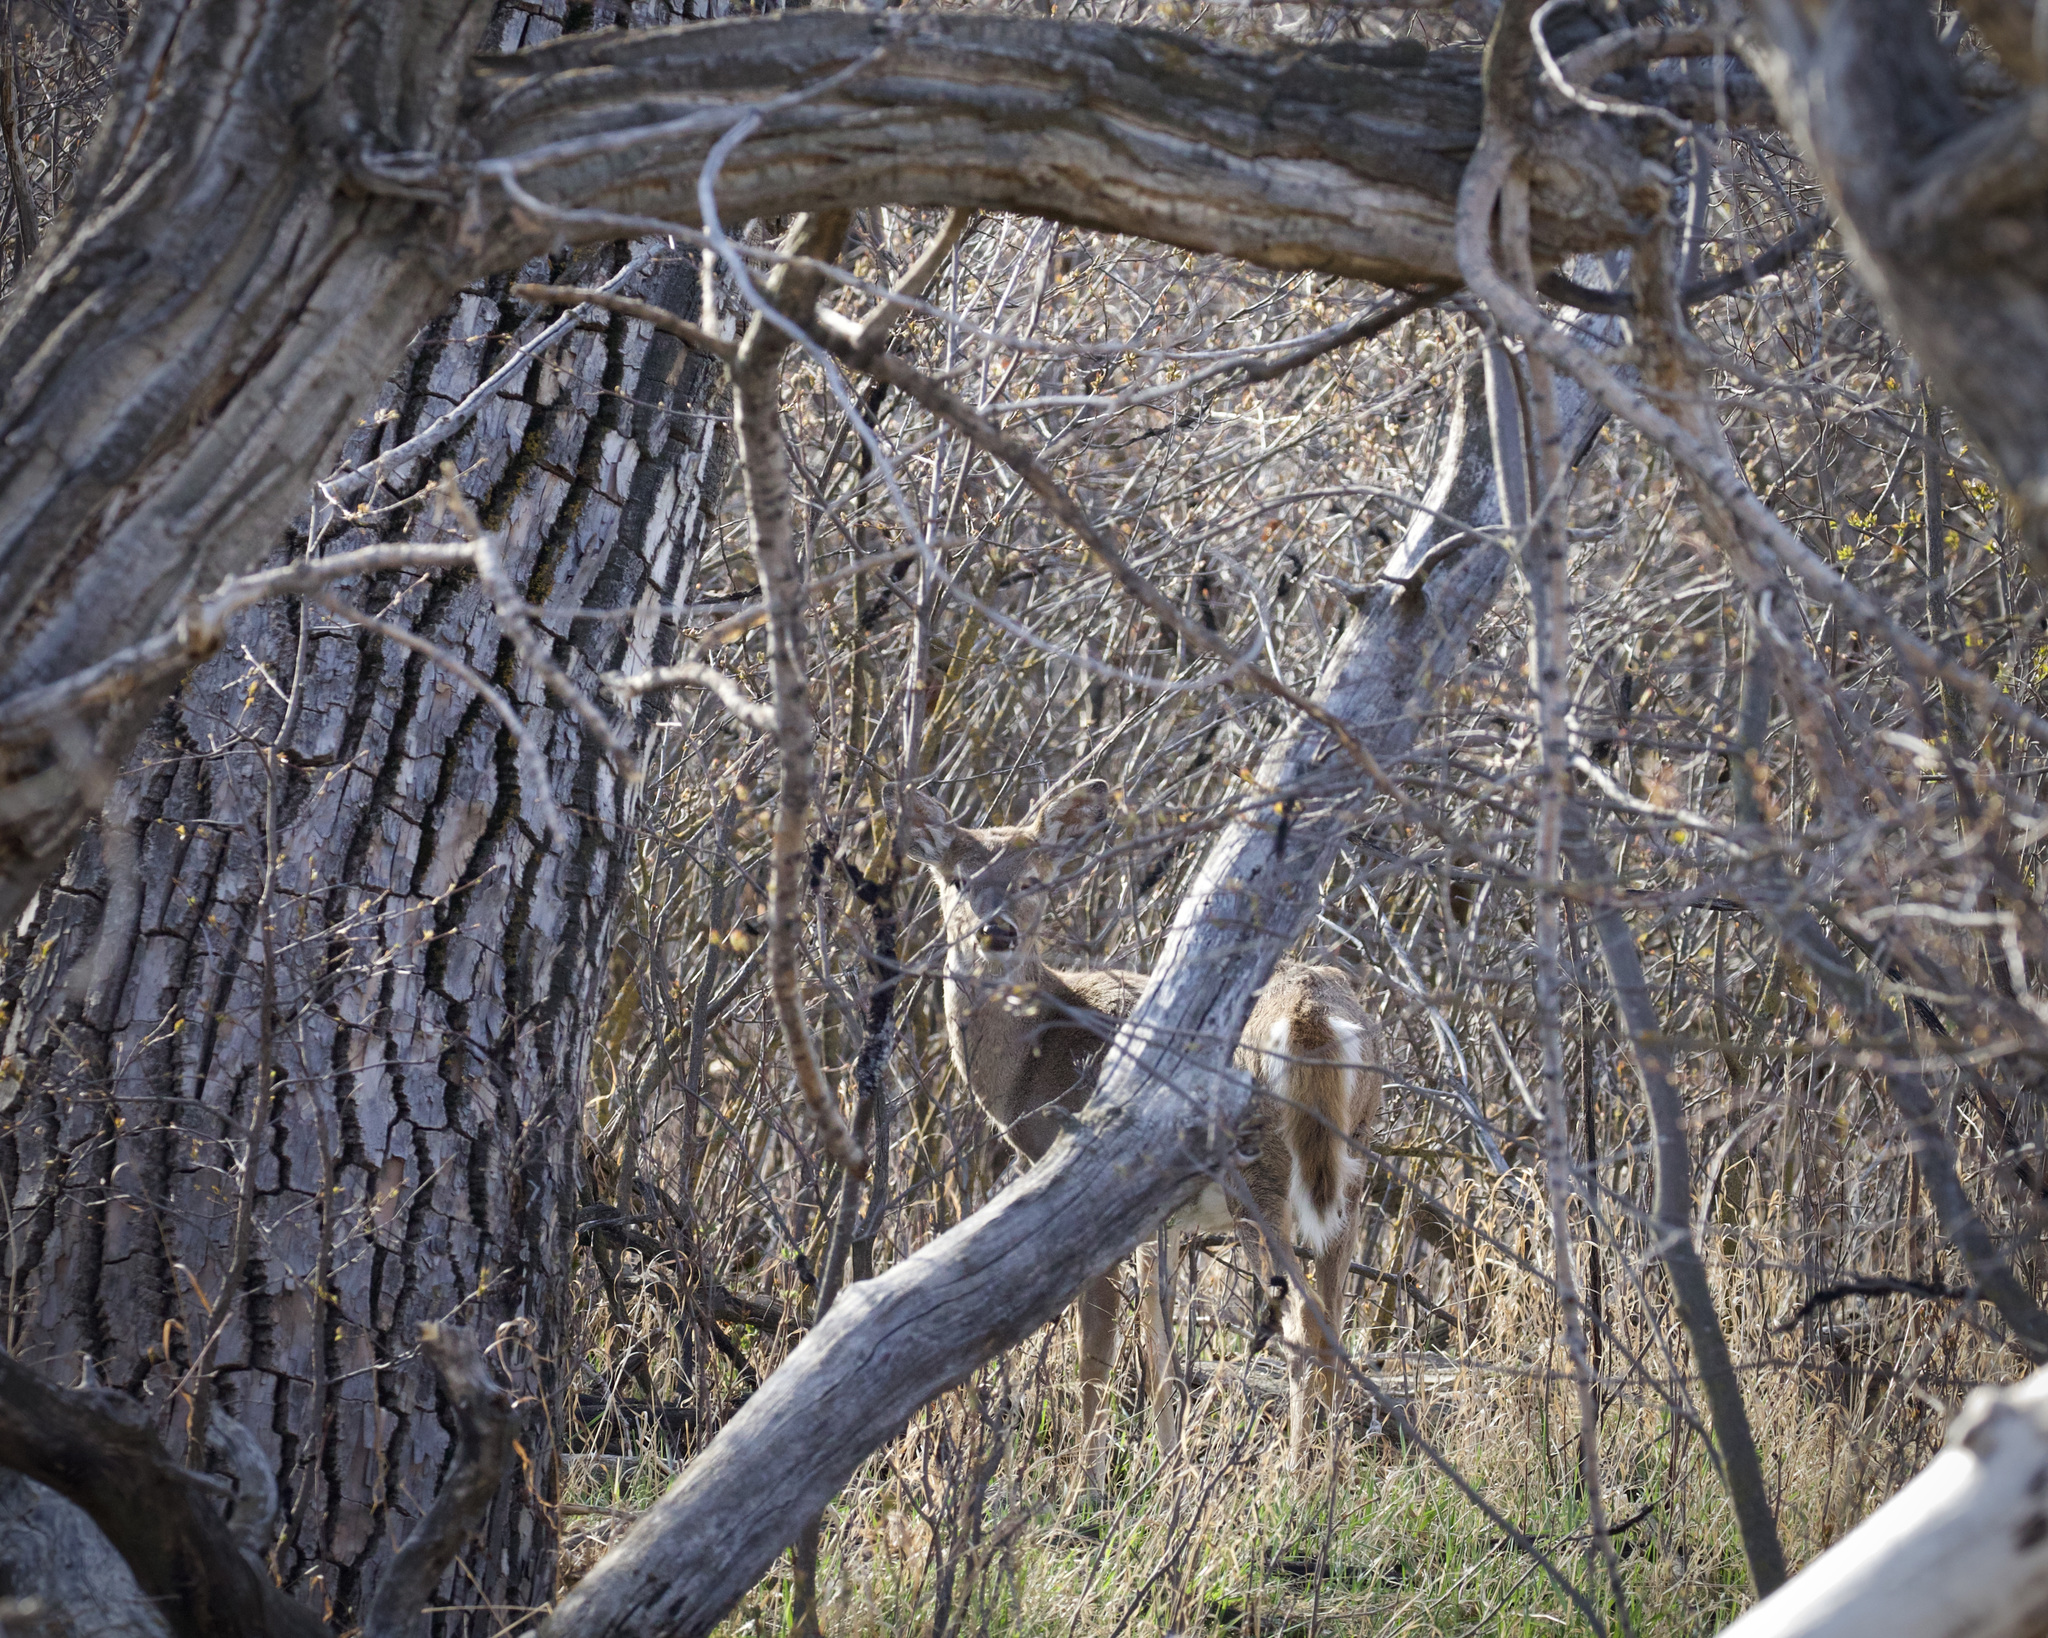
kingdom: Animalia
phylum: Chordata
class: Mammalia
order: Artiodactyla
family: Cervidae
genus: Odocoileus
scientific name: Odocoileus virginianus
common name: White-tailed deer
